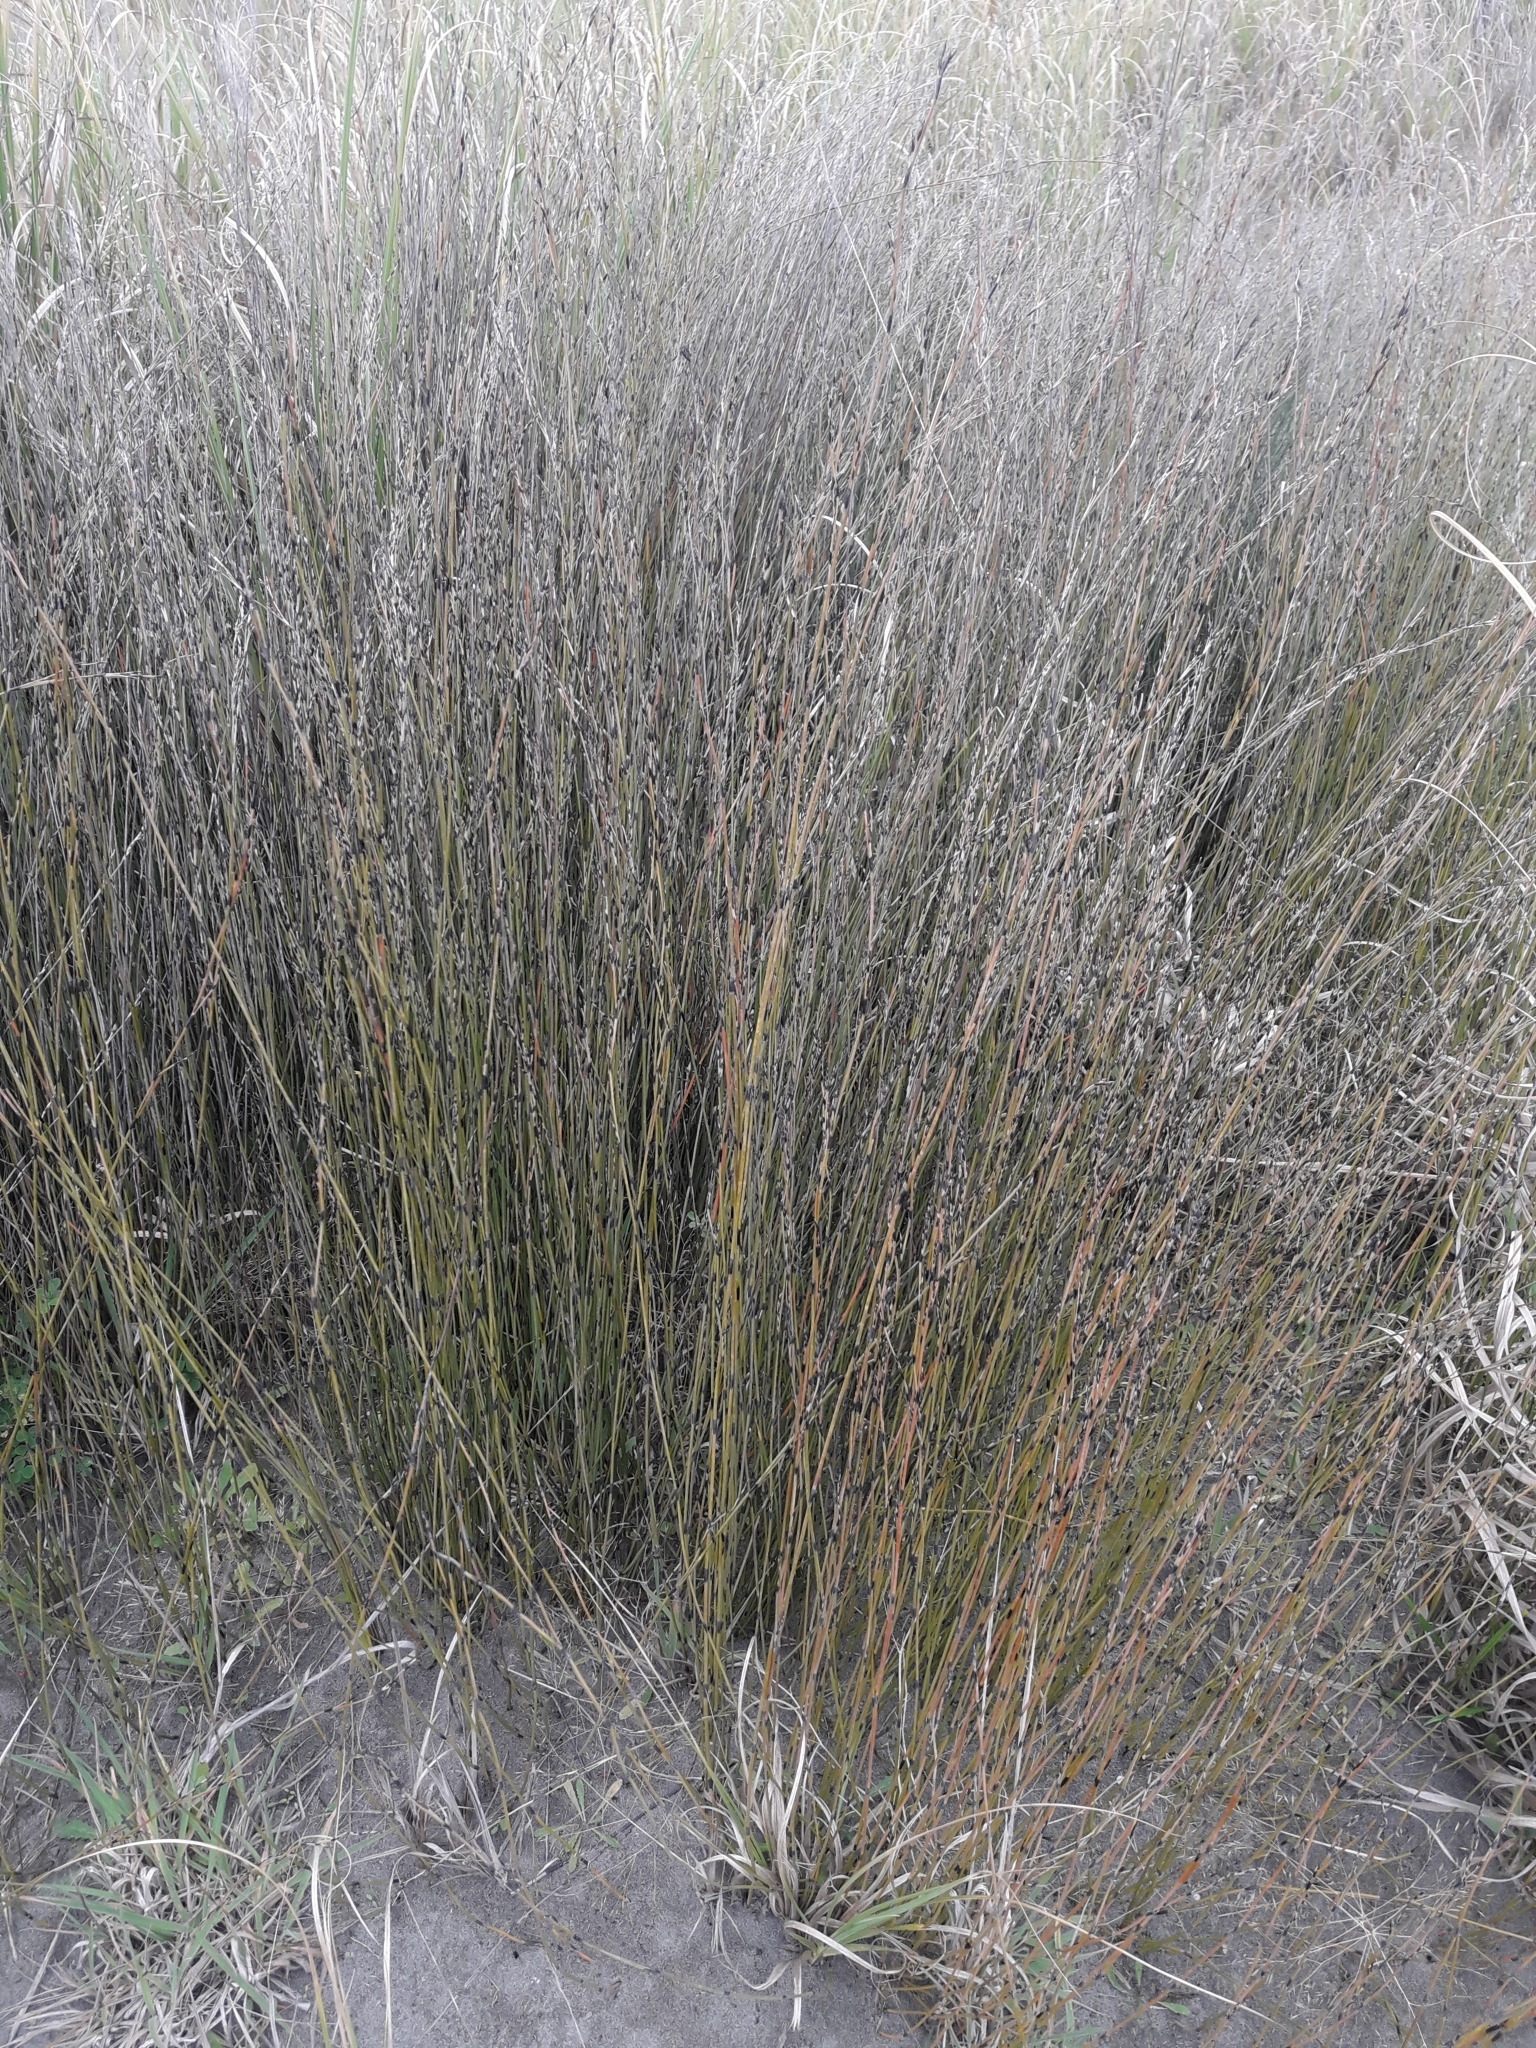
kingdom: Plantae
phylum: Tracheophyta
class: Liliopsida
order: Poales
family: Restionaceae
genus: Apodasmia
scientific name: Apodasmia similis
